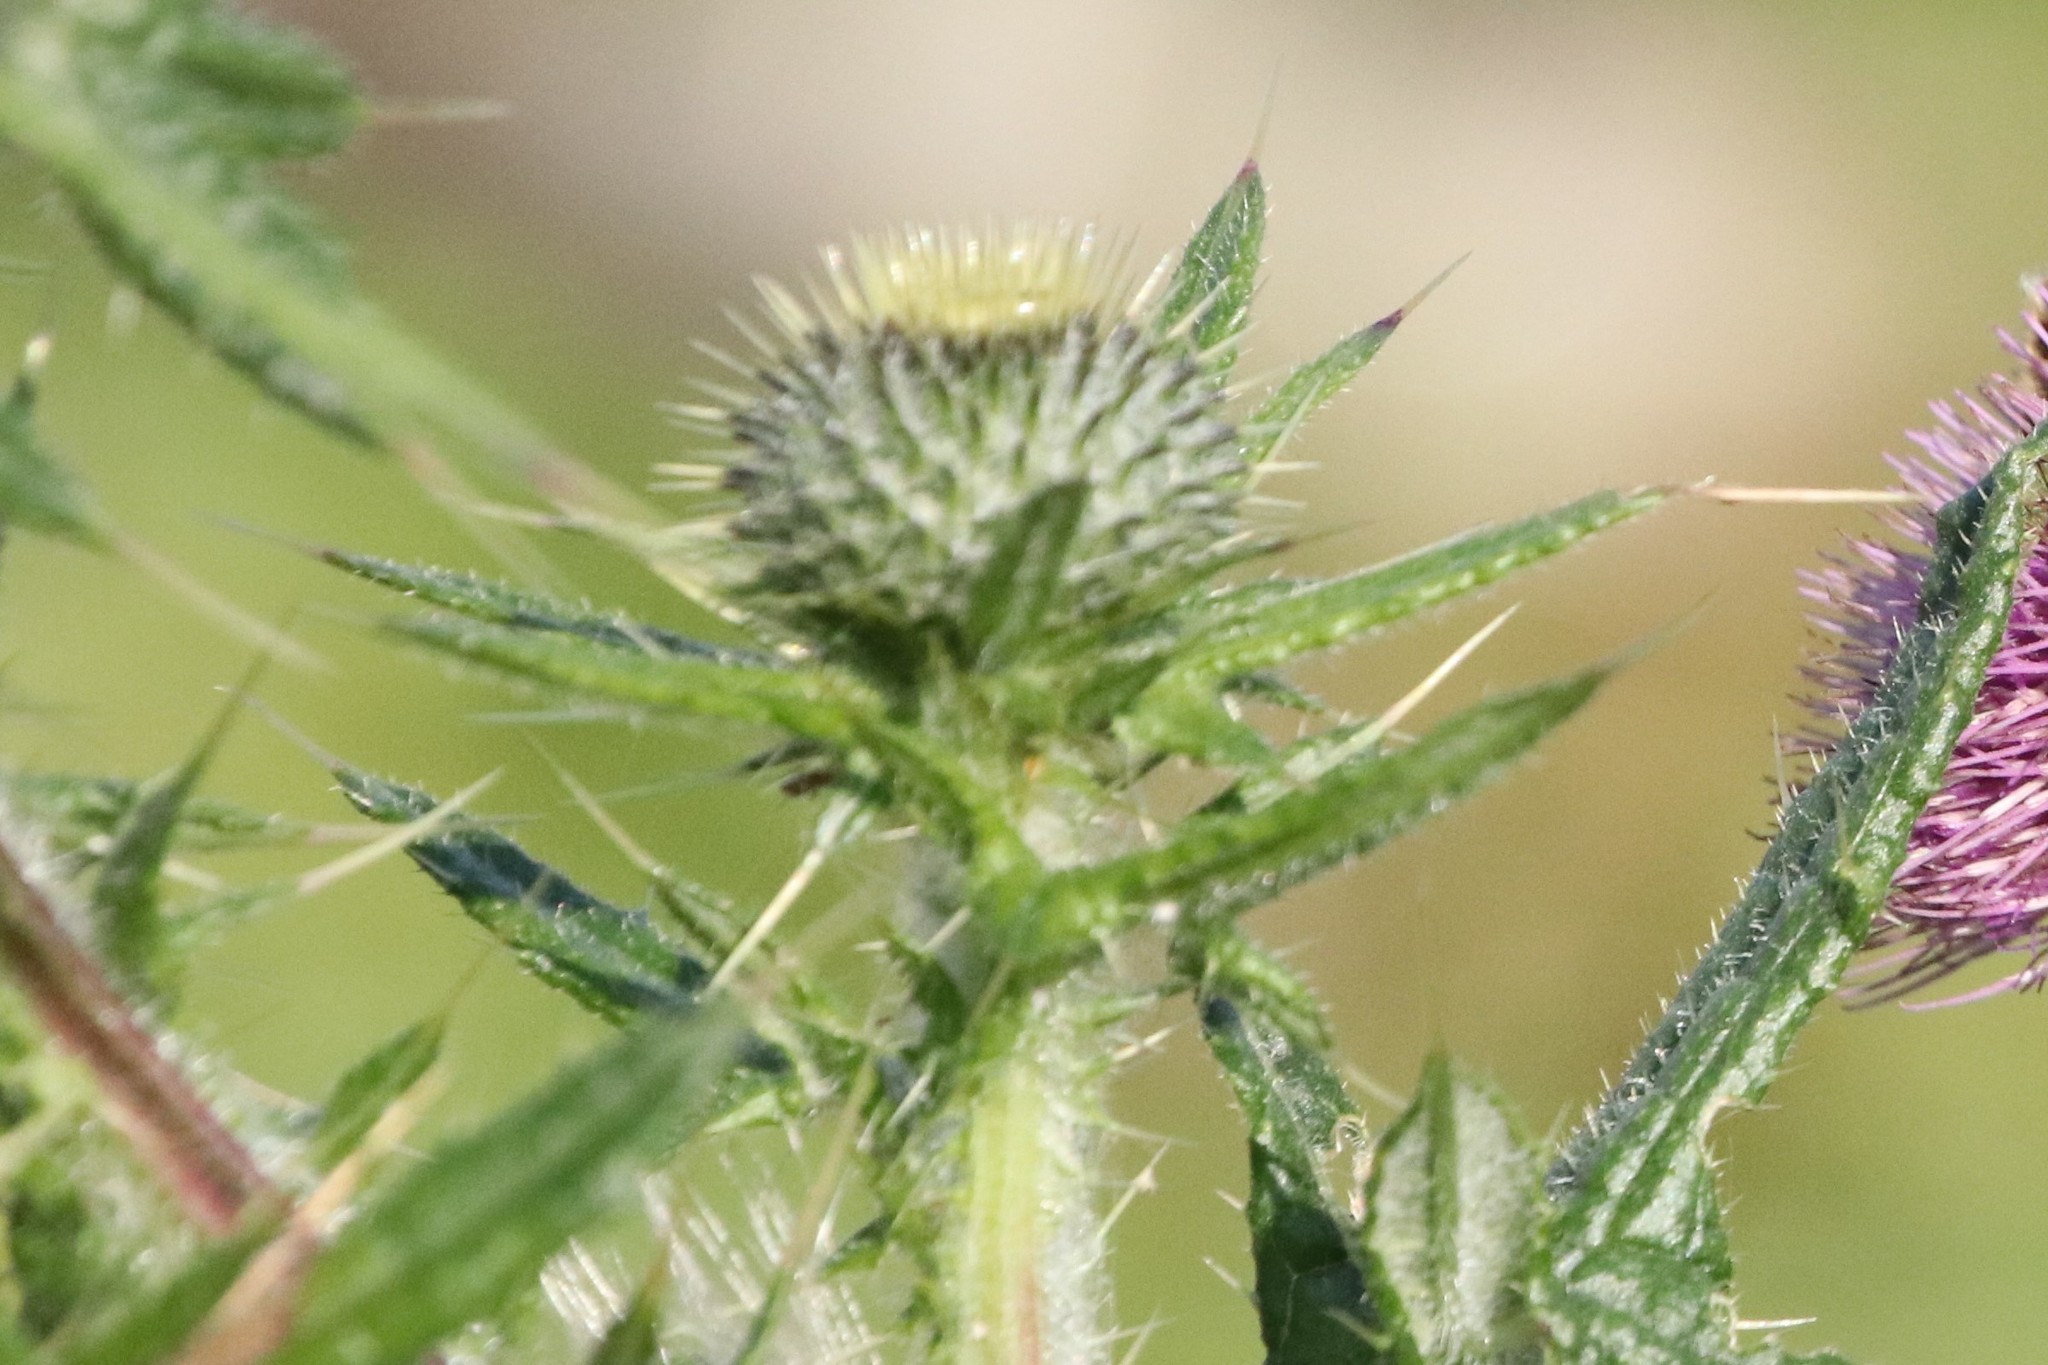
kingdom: Plantae
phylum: Tracheophyta
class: Magnoliopsida
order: Asterales
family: Asteraceae
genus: Cirsium
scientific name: Cirsium vulgare
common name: Bull thistle
